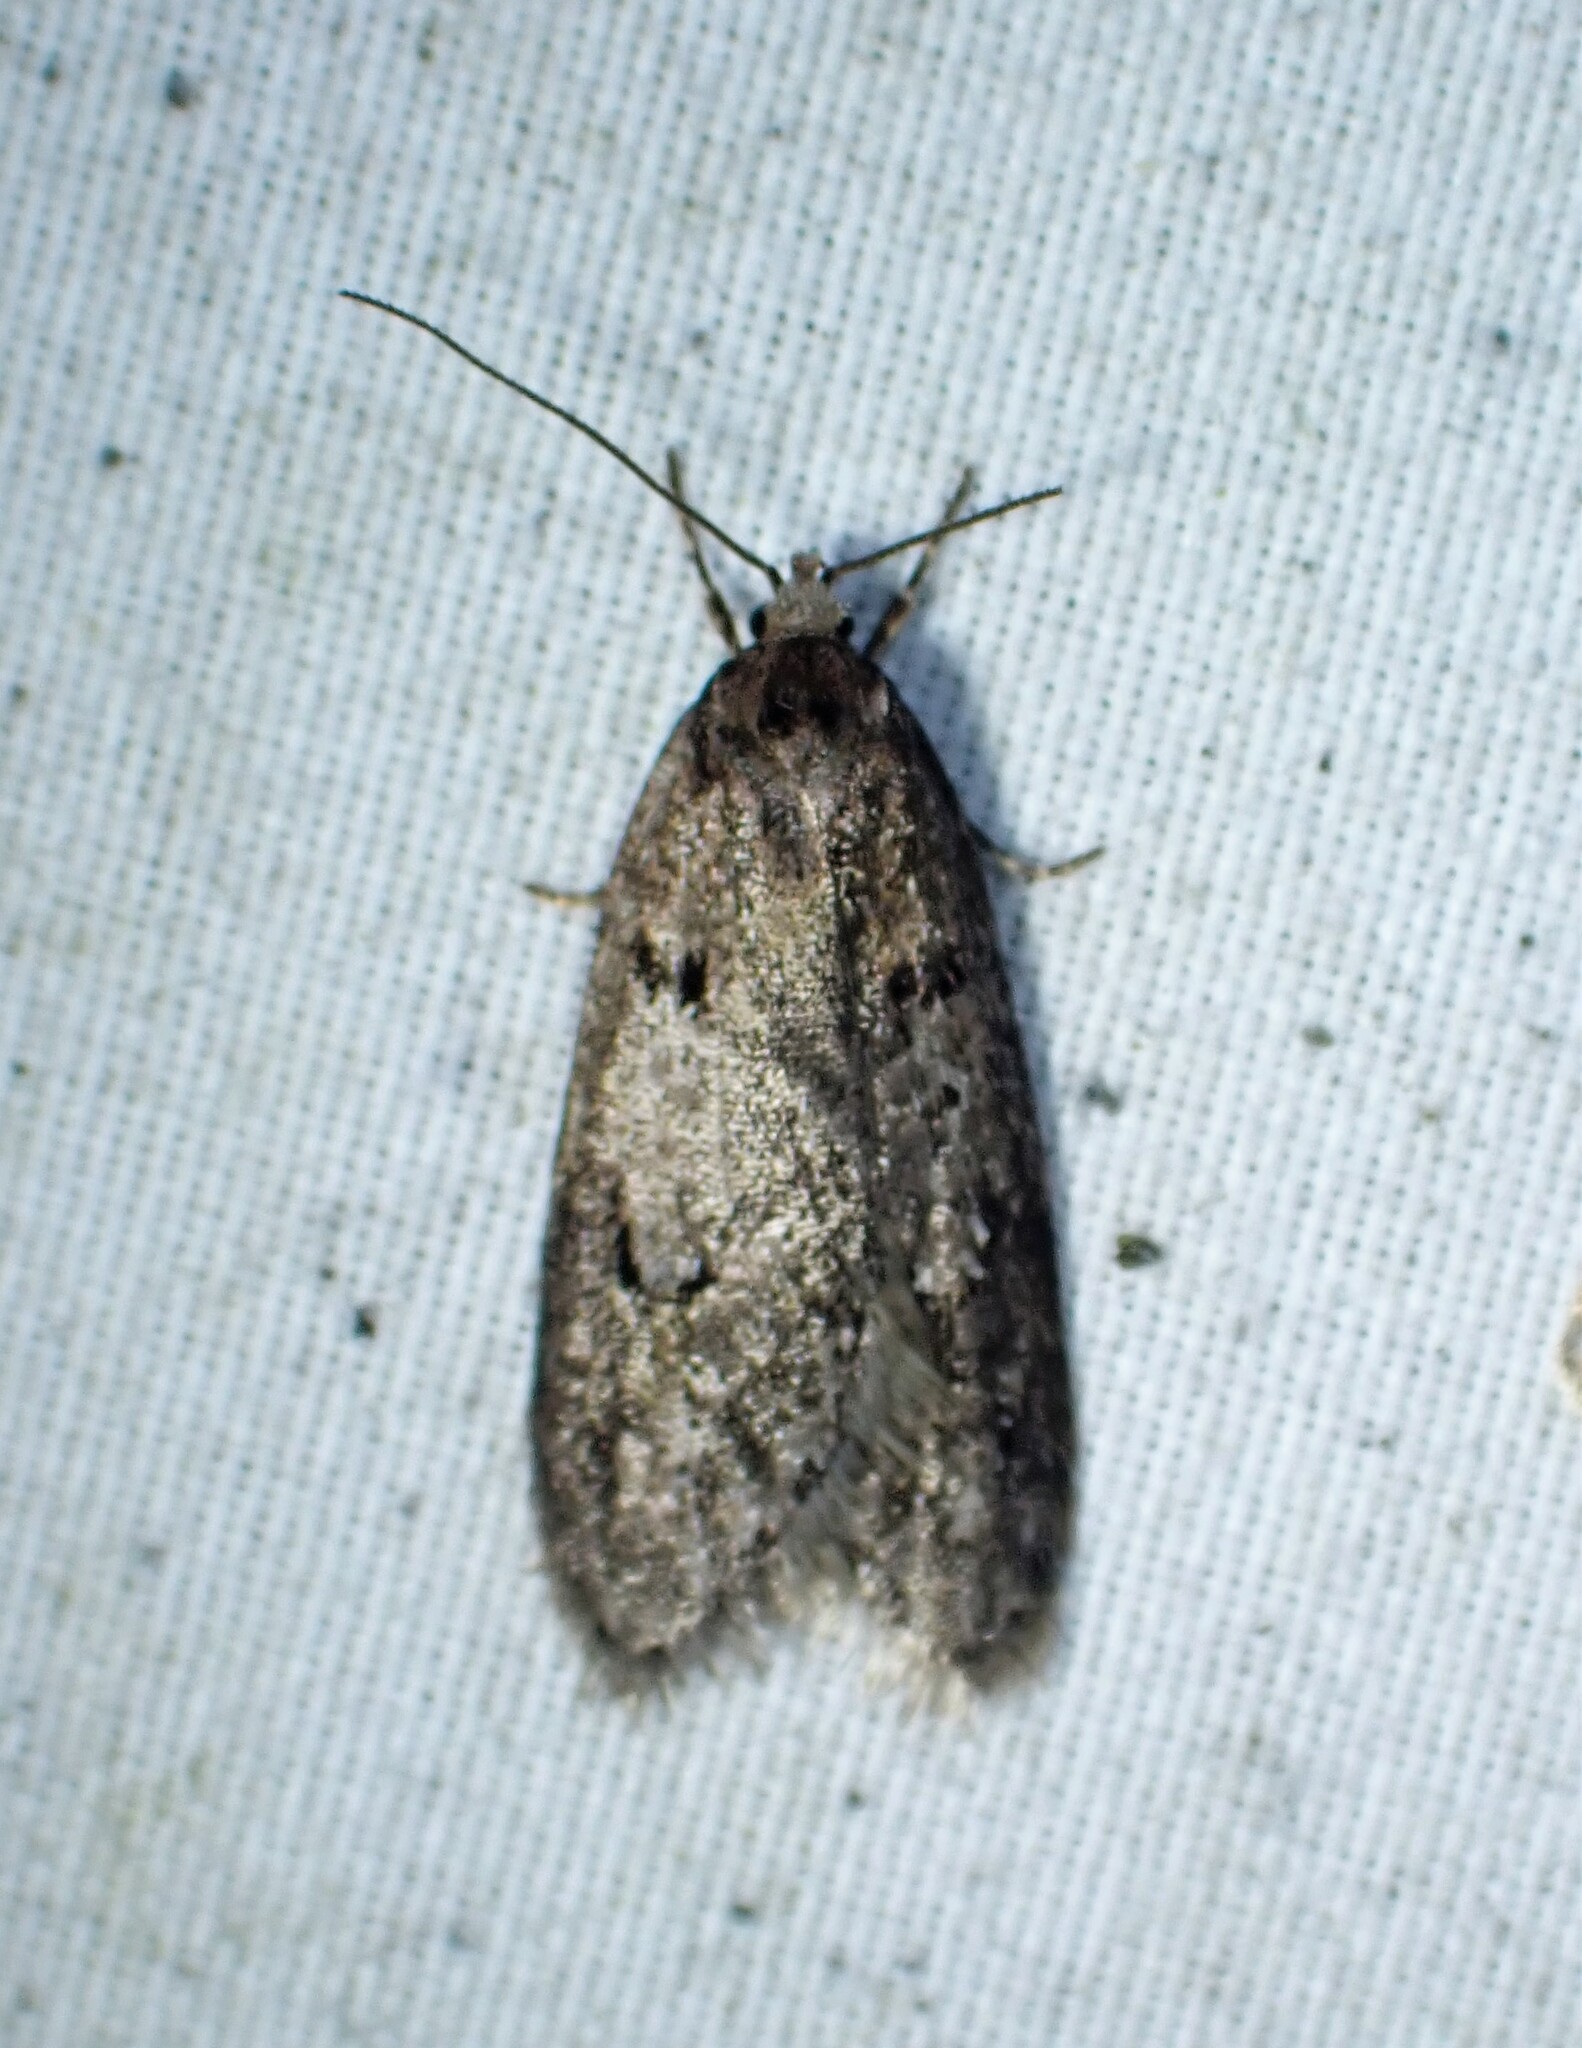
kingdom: Animalia
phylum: Arthropoda
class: Insecta
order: Lepidoptera
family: Depressariidae
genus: Semioscopis
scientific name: Semioscopis megamicrella
